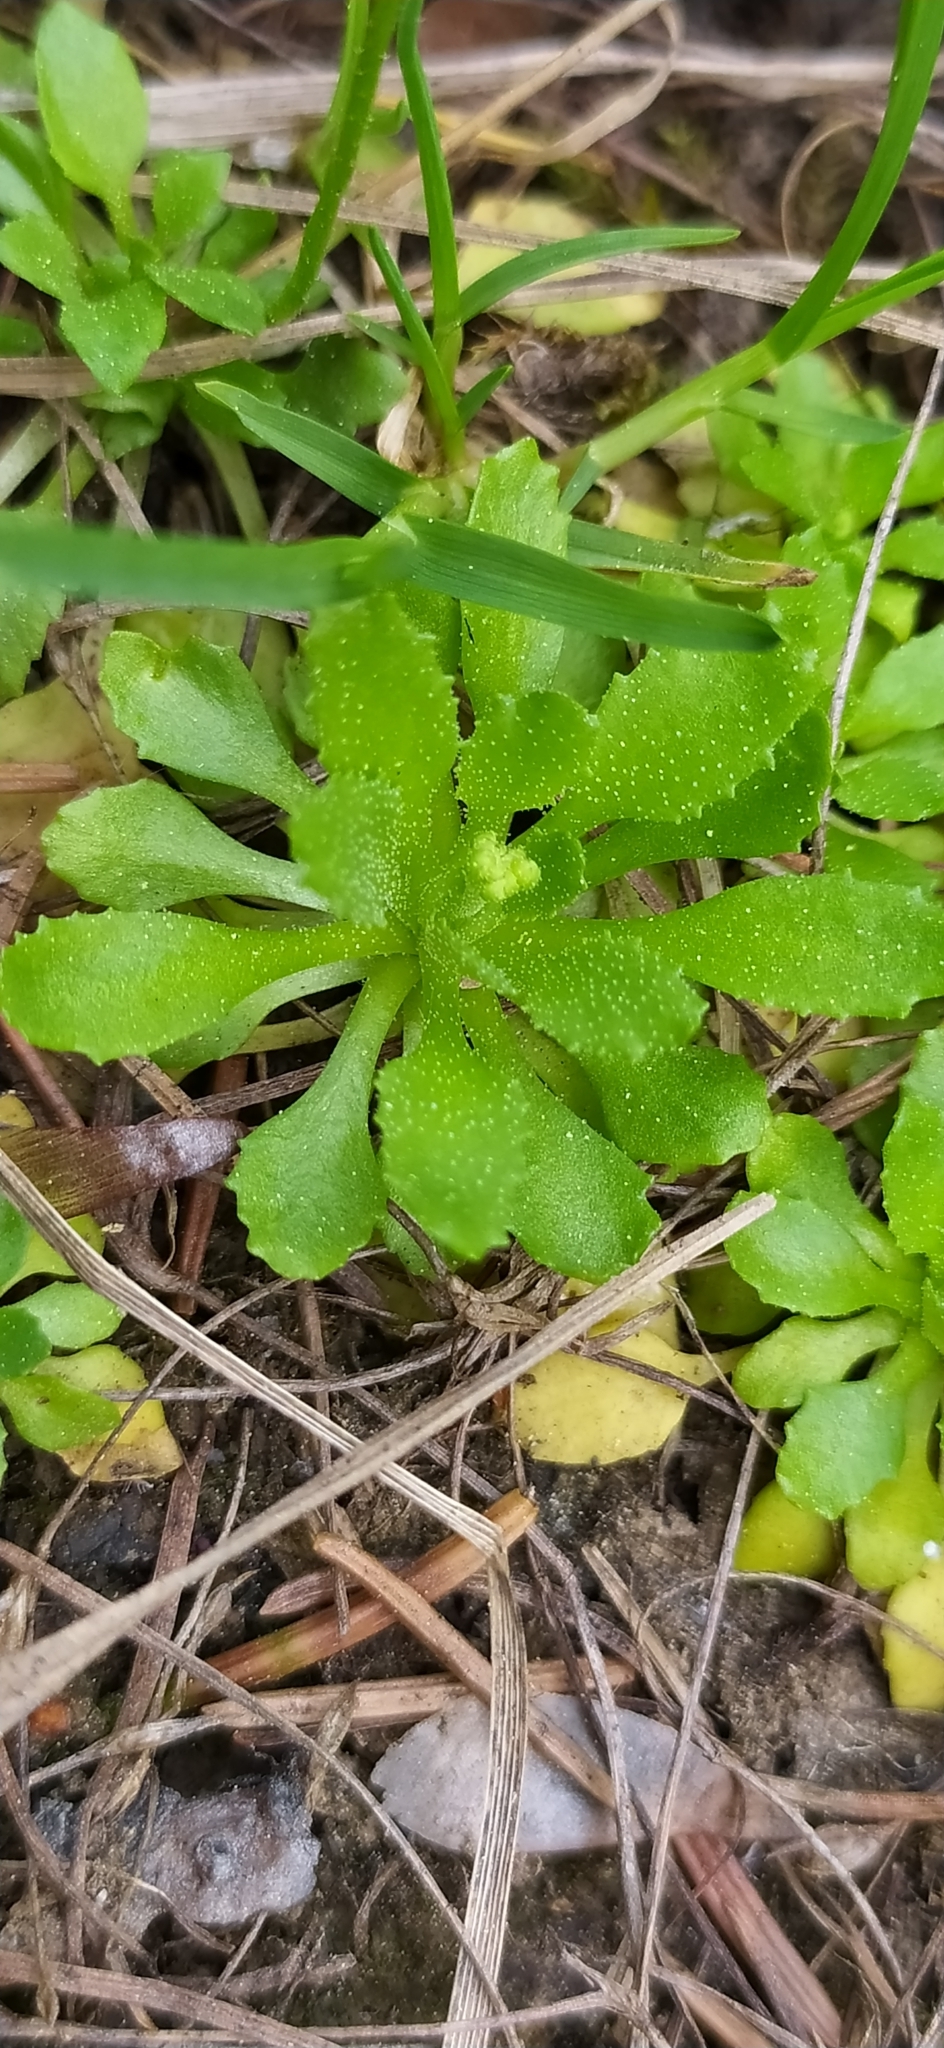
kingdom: Plantae
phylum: Tracheophyta
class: Magnoliopsida
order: Ericales
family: Primulaceae
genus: Androsace
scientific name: Androsace filiformis
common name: Filiform rock jasmine
